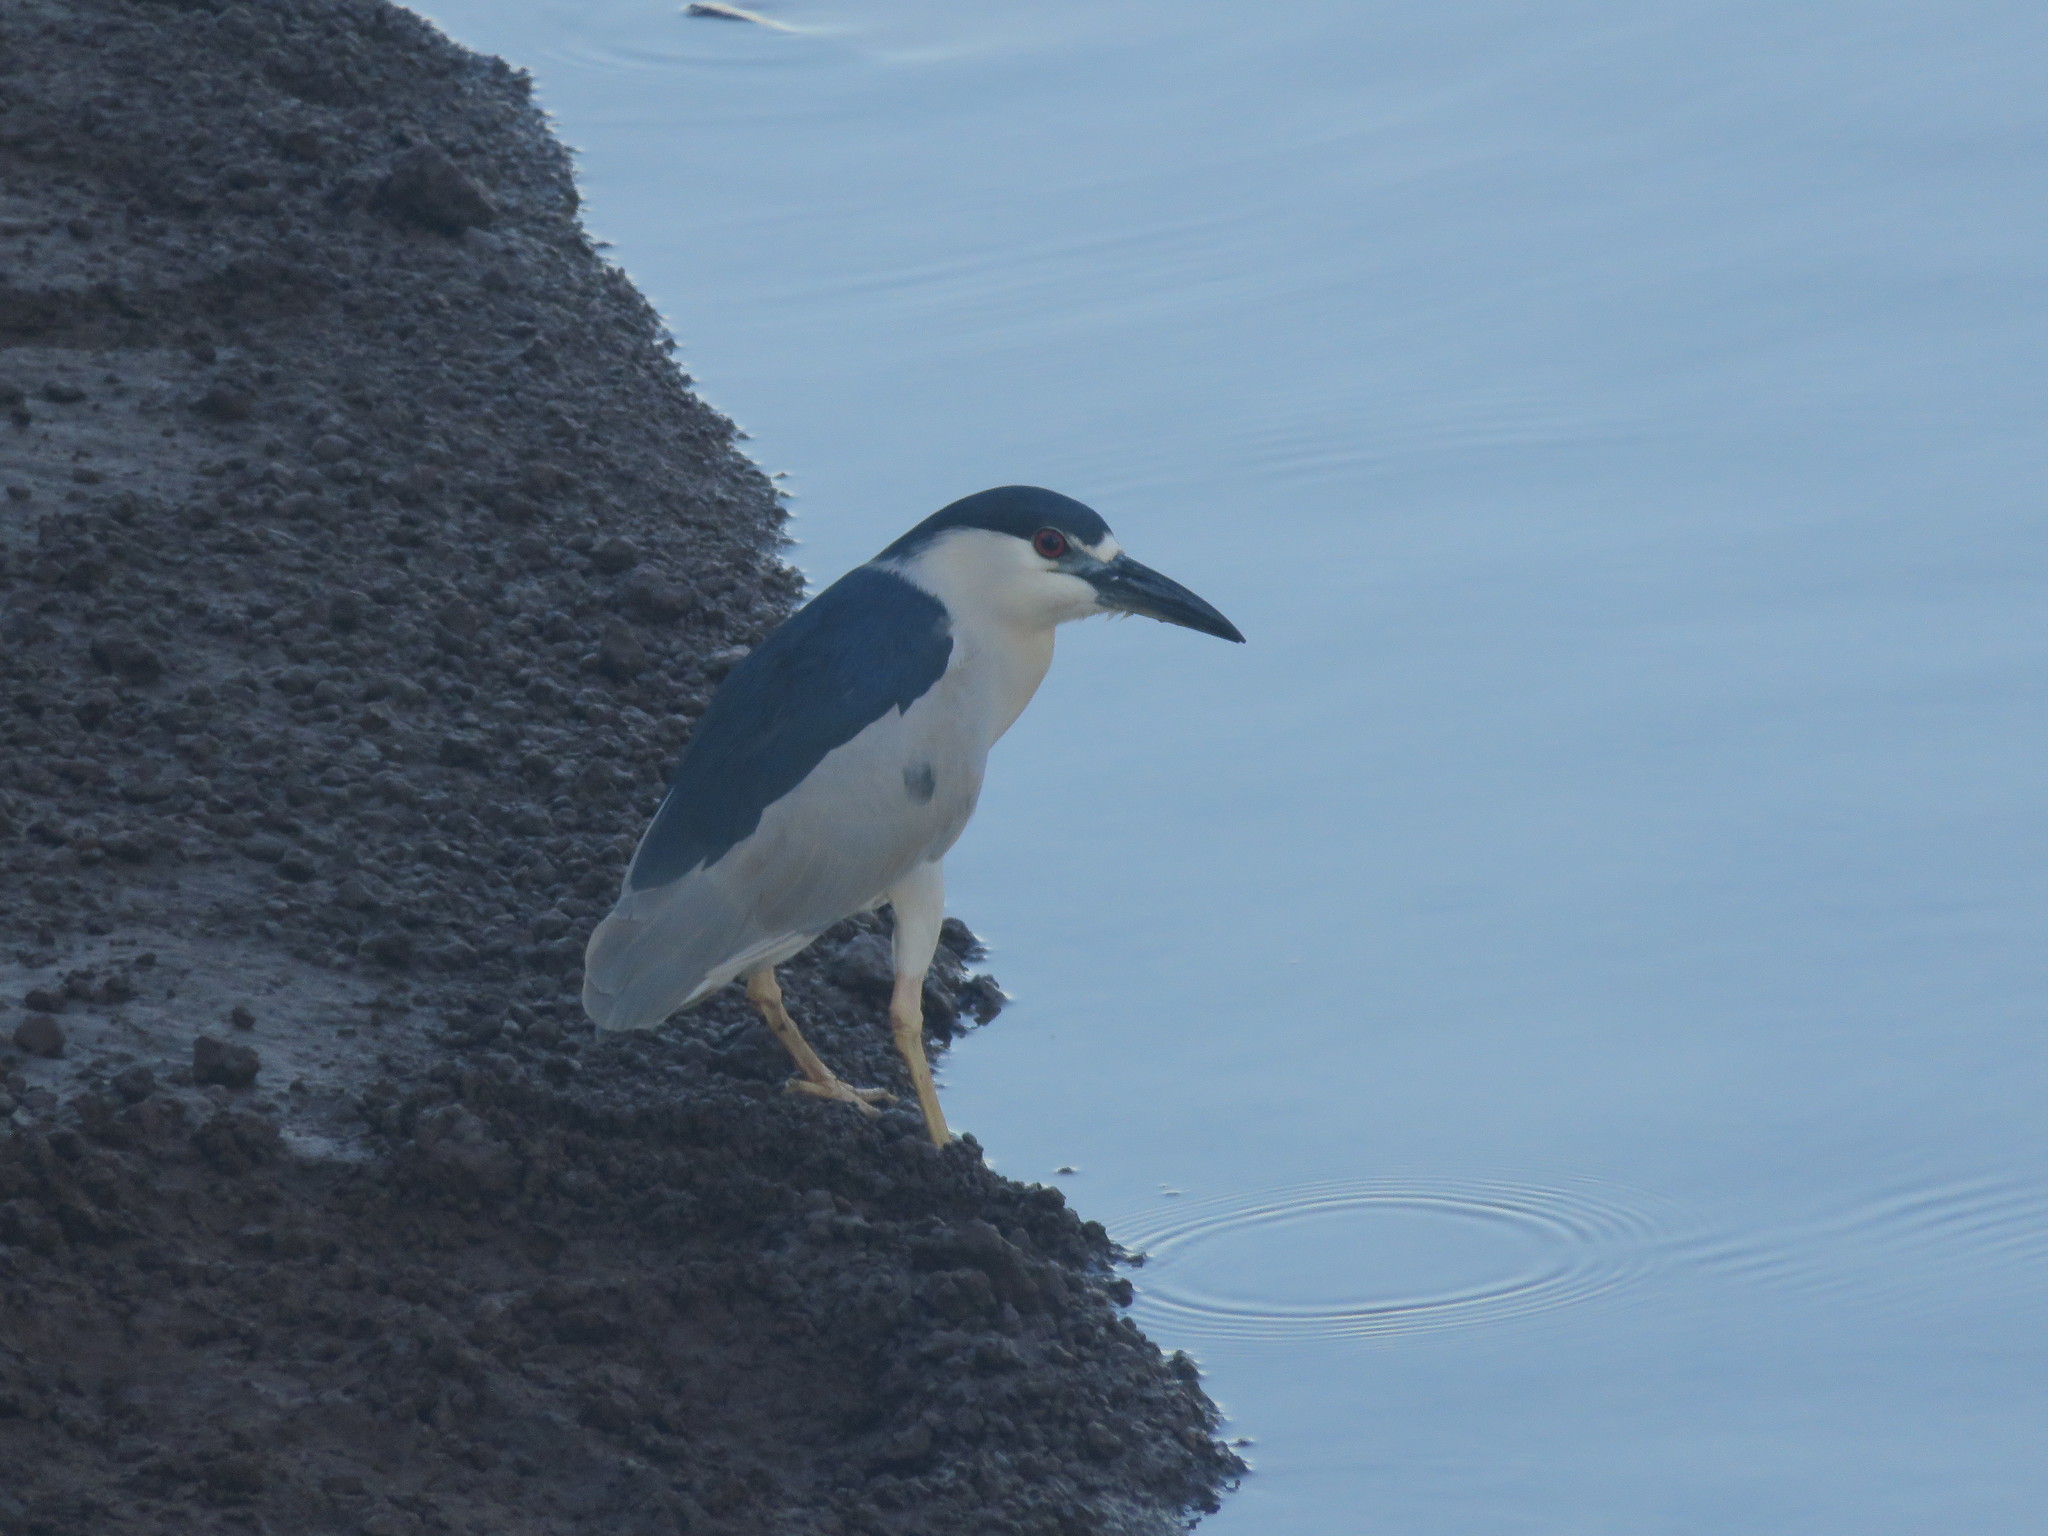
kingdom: Animalia
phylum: Chordata
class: Aves
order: Pelecaniformes
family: Ardeidae
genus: Nycticorax
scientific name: Nycticorax nycticorax
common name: Black-crowned night heron
